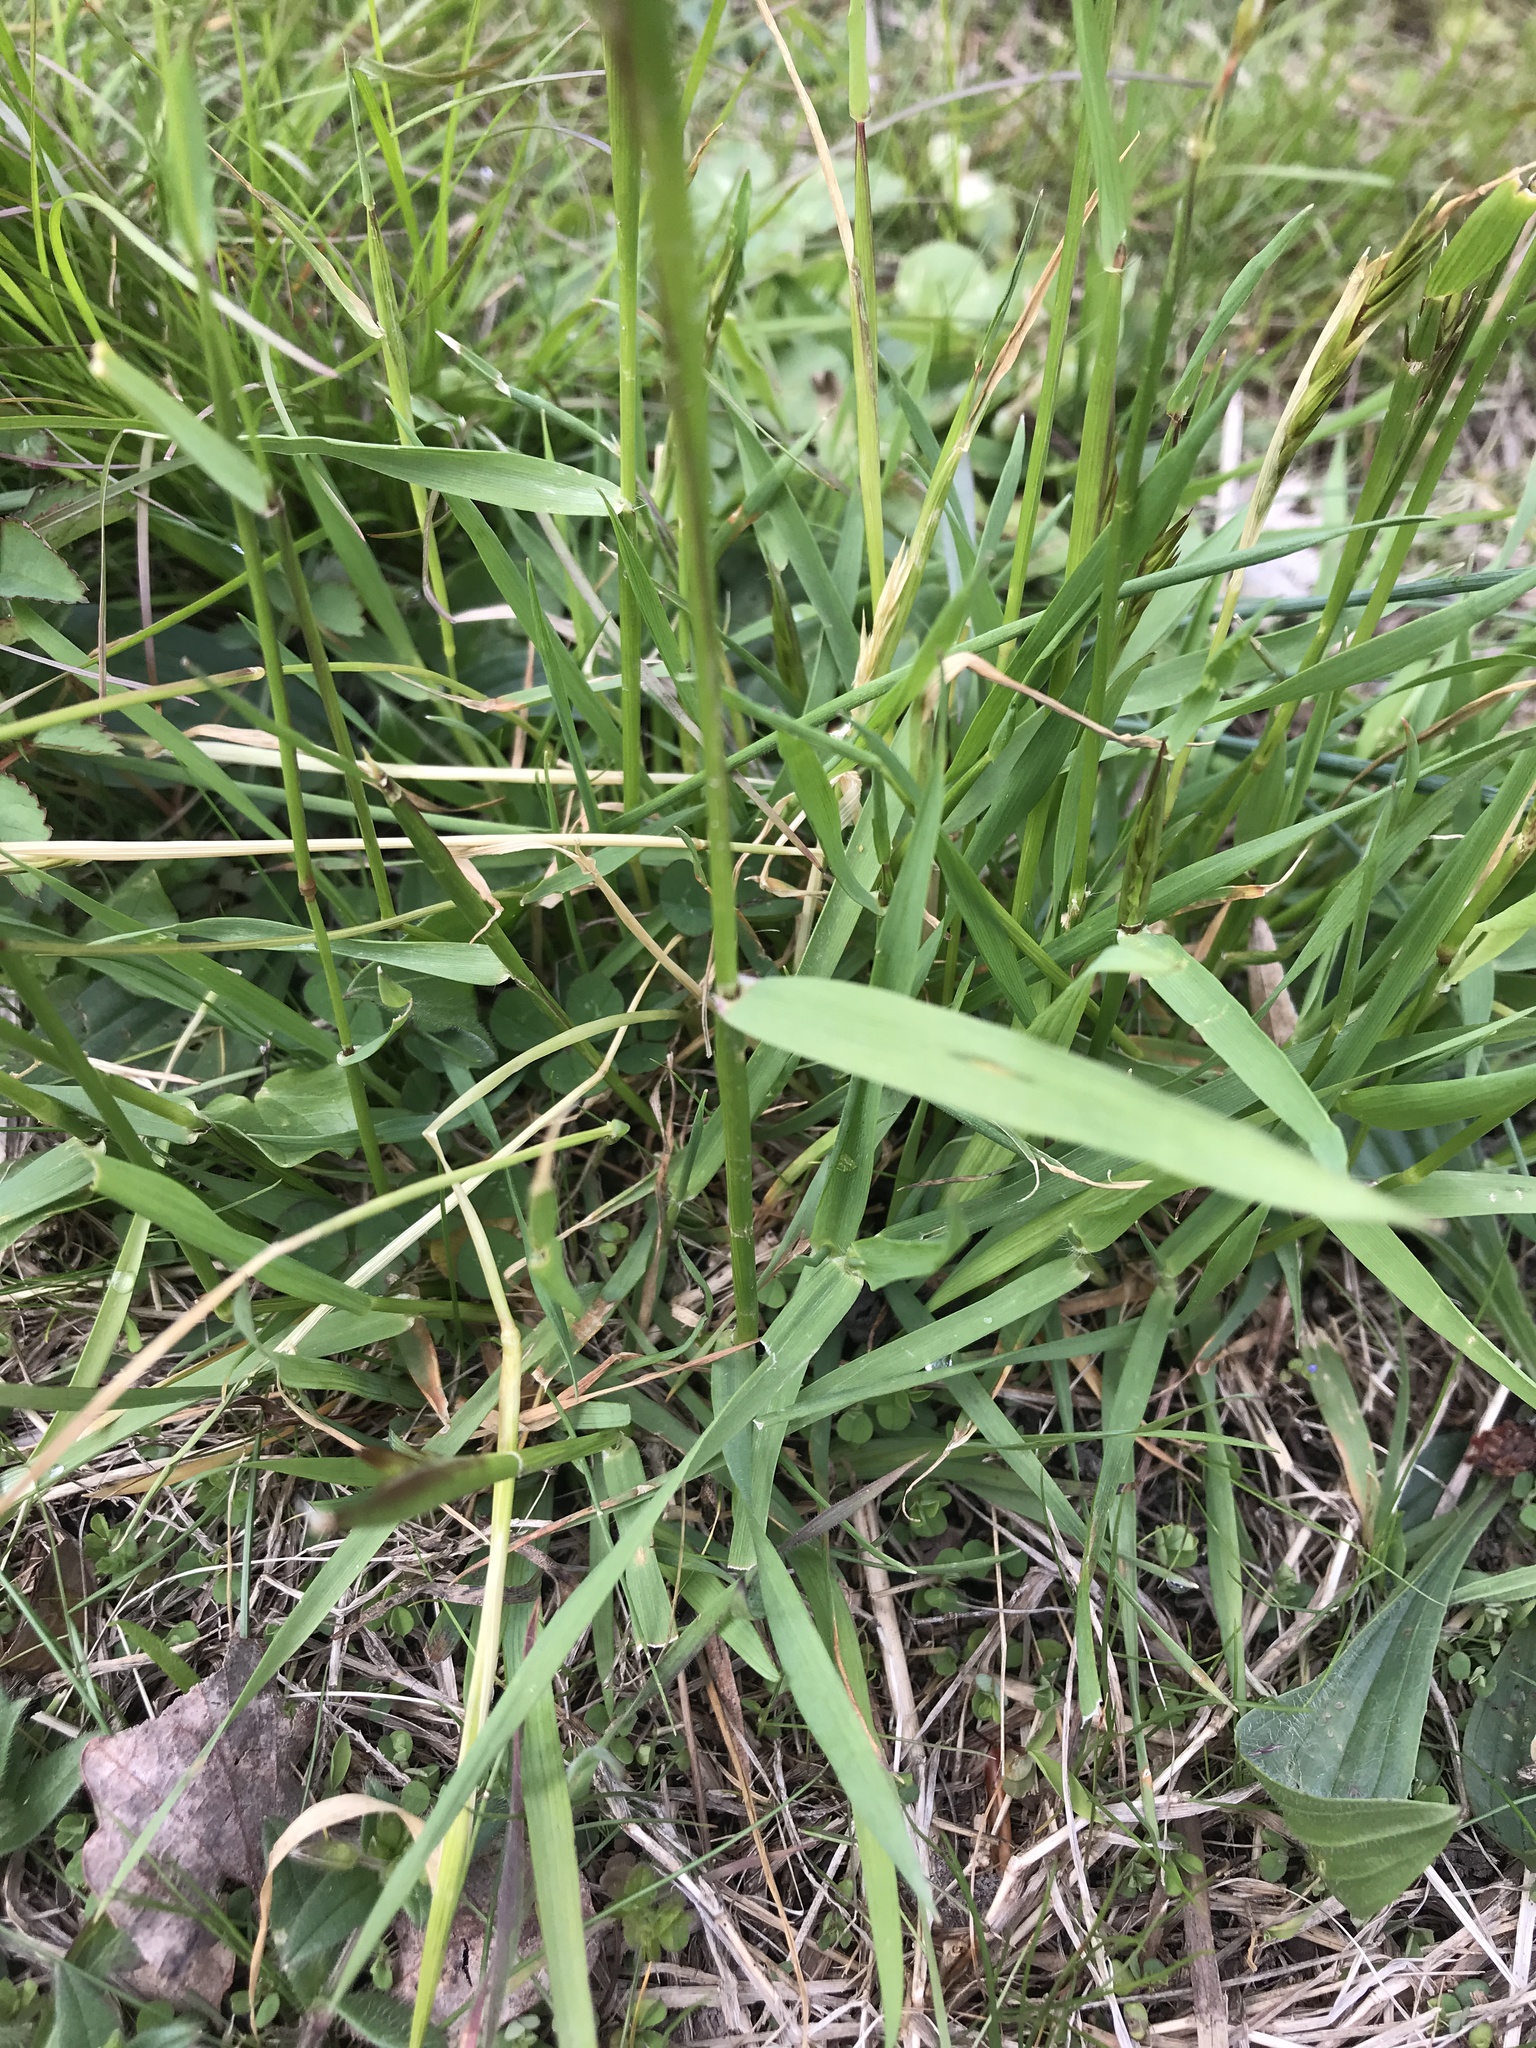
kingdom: Plantae
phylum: Tracheophyta
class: Liliopsida
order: Poales
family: Poaceae
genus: Anthoxanthum
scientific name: Anthoxanthum odoratum
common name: Sweet vernalgrass
